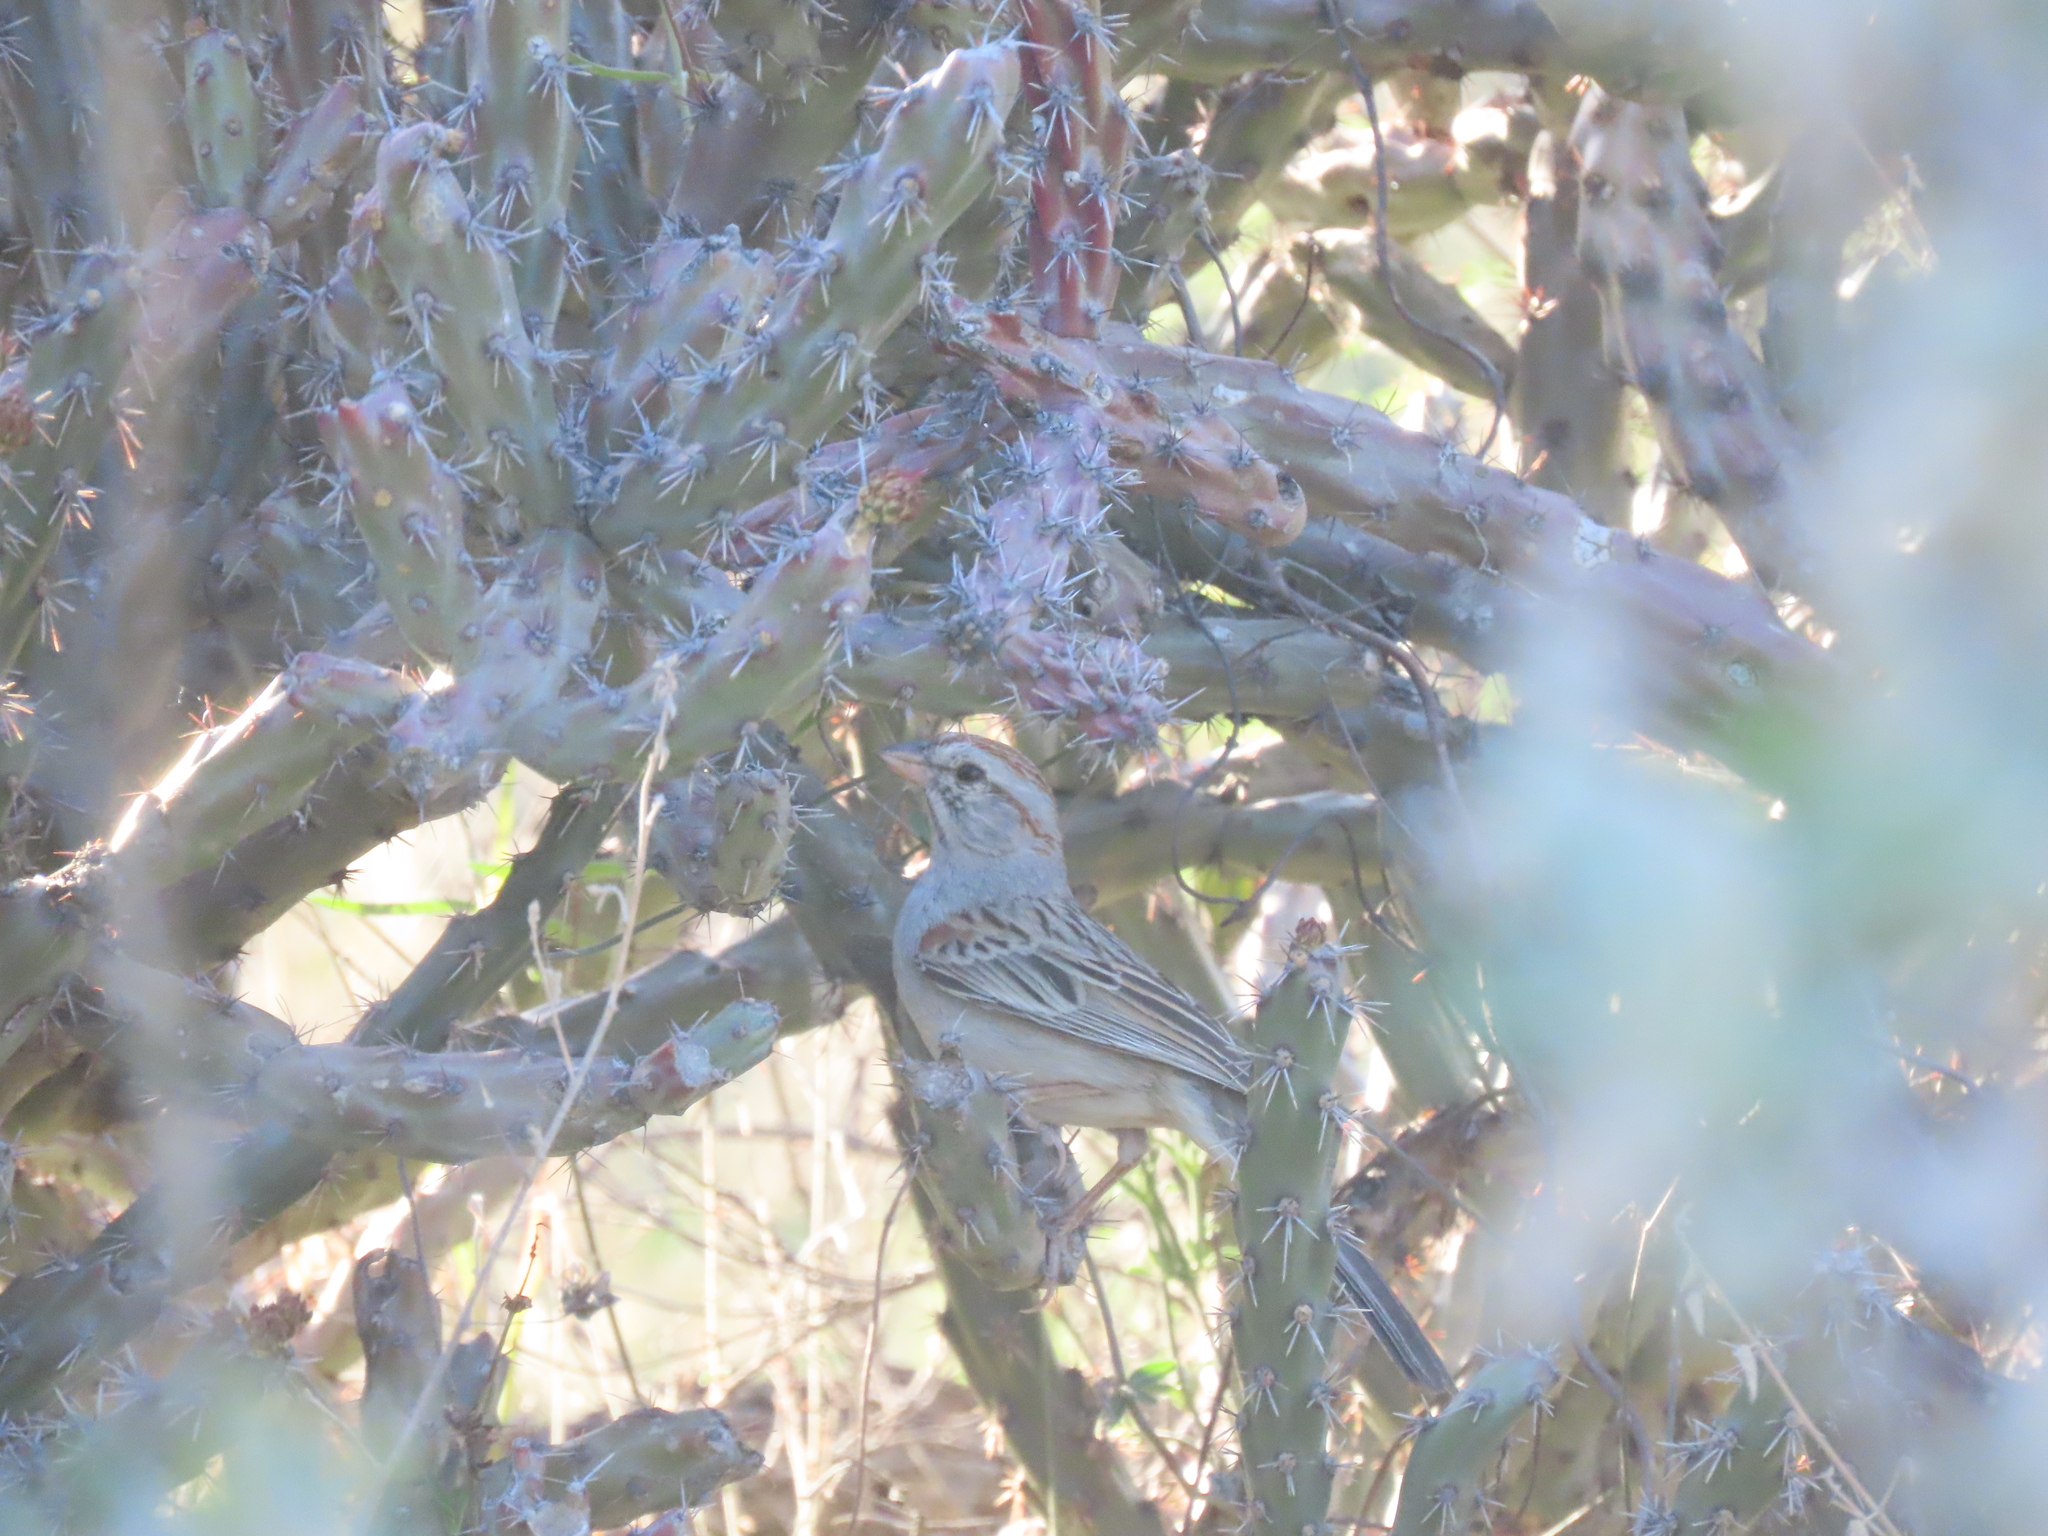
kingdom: Animalia
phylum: Chordata
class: Aves
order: Passeriformes
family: Passerellidae
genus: Peucaea
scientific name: Peucaea carpalis
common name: Rufous-winged sparrow
